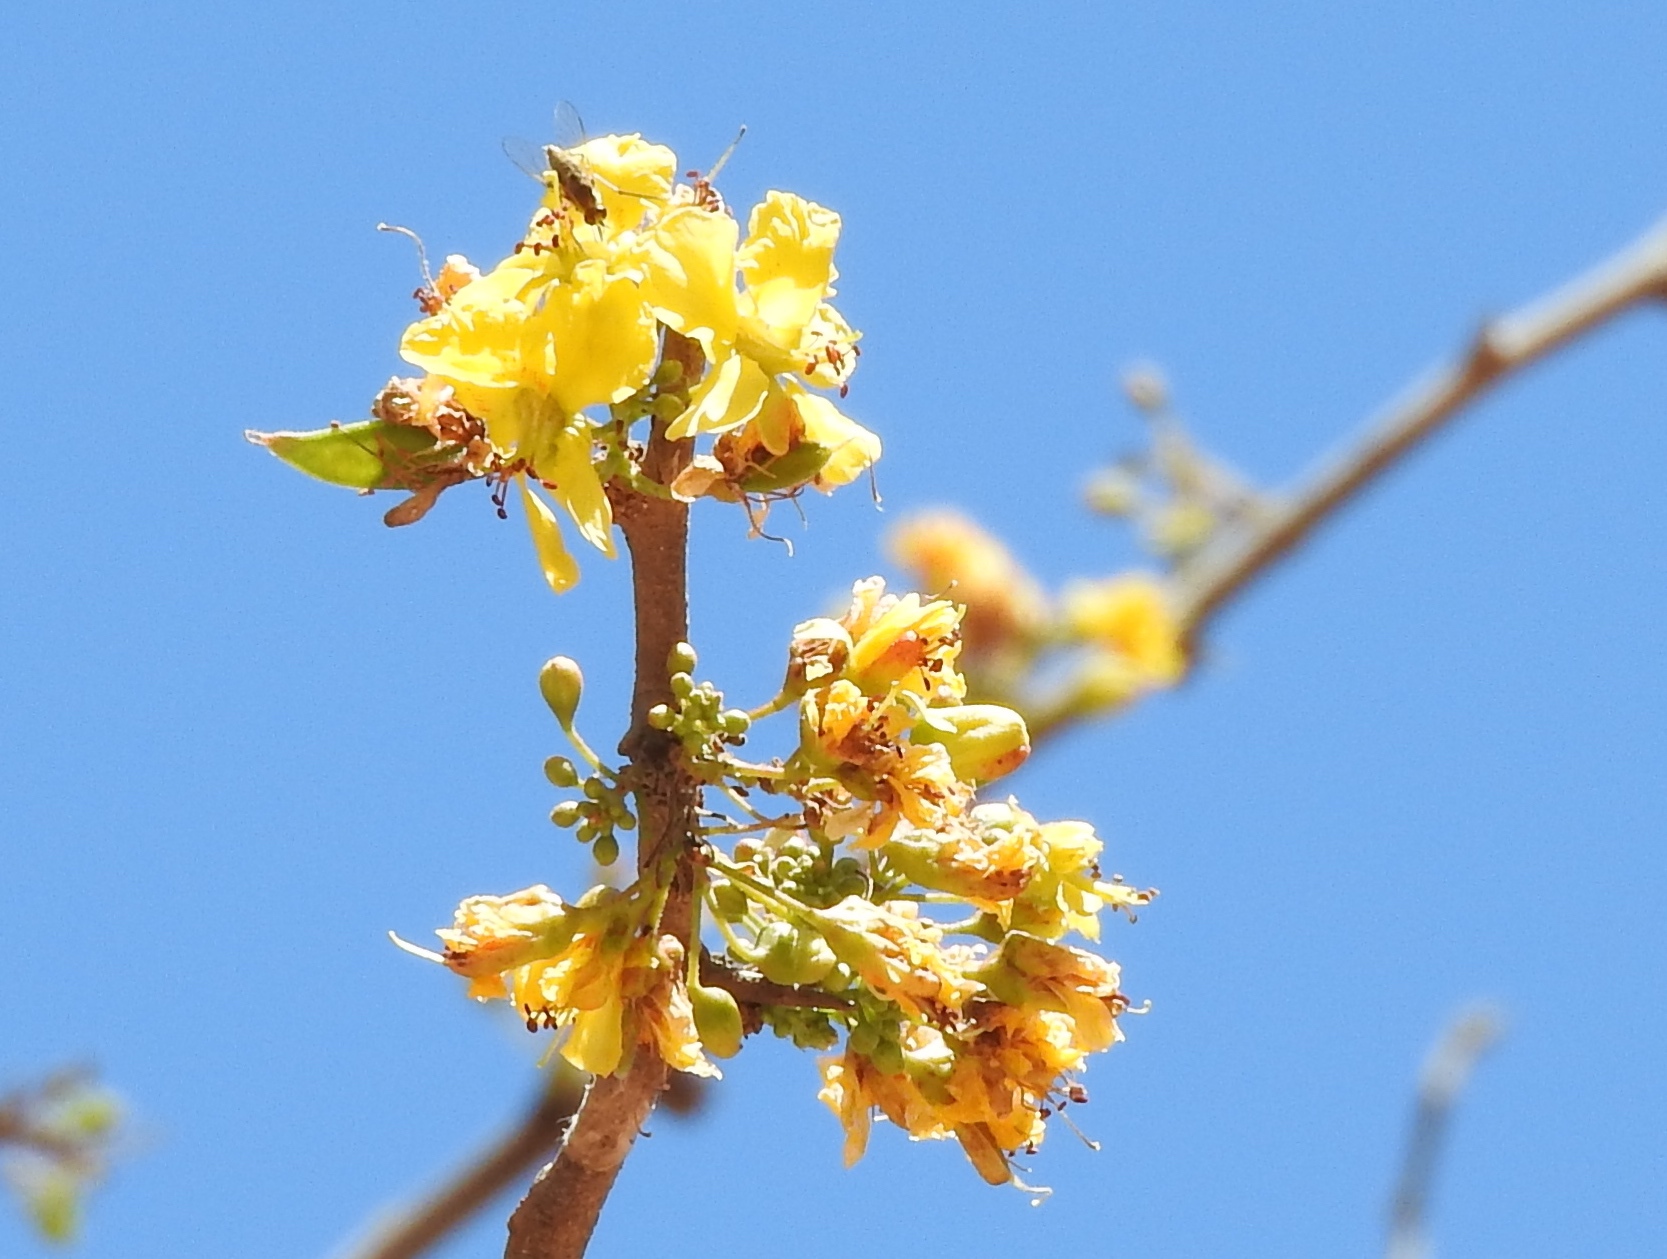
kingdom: Plantae
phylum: Tracheophyta
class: Magnoliopsida
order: Fabales
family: Fabaceae
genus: Haematoxylum
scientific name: Haematoxylum brasiletto
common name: Peachwood
